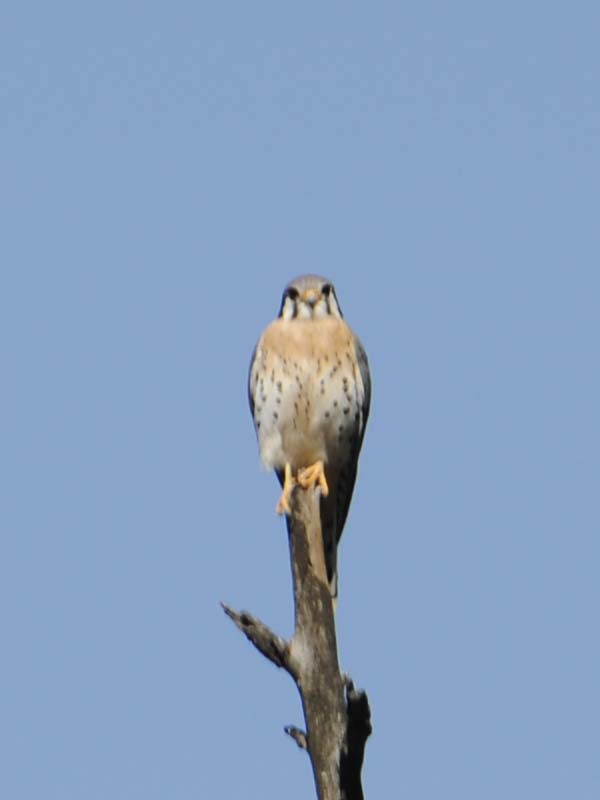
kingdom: Animalia
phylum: Chordata
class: Aves
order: Falconiformes
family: Falconidae
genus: Falco
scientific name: Falco sparverius
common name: American kestrel
